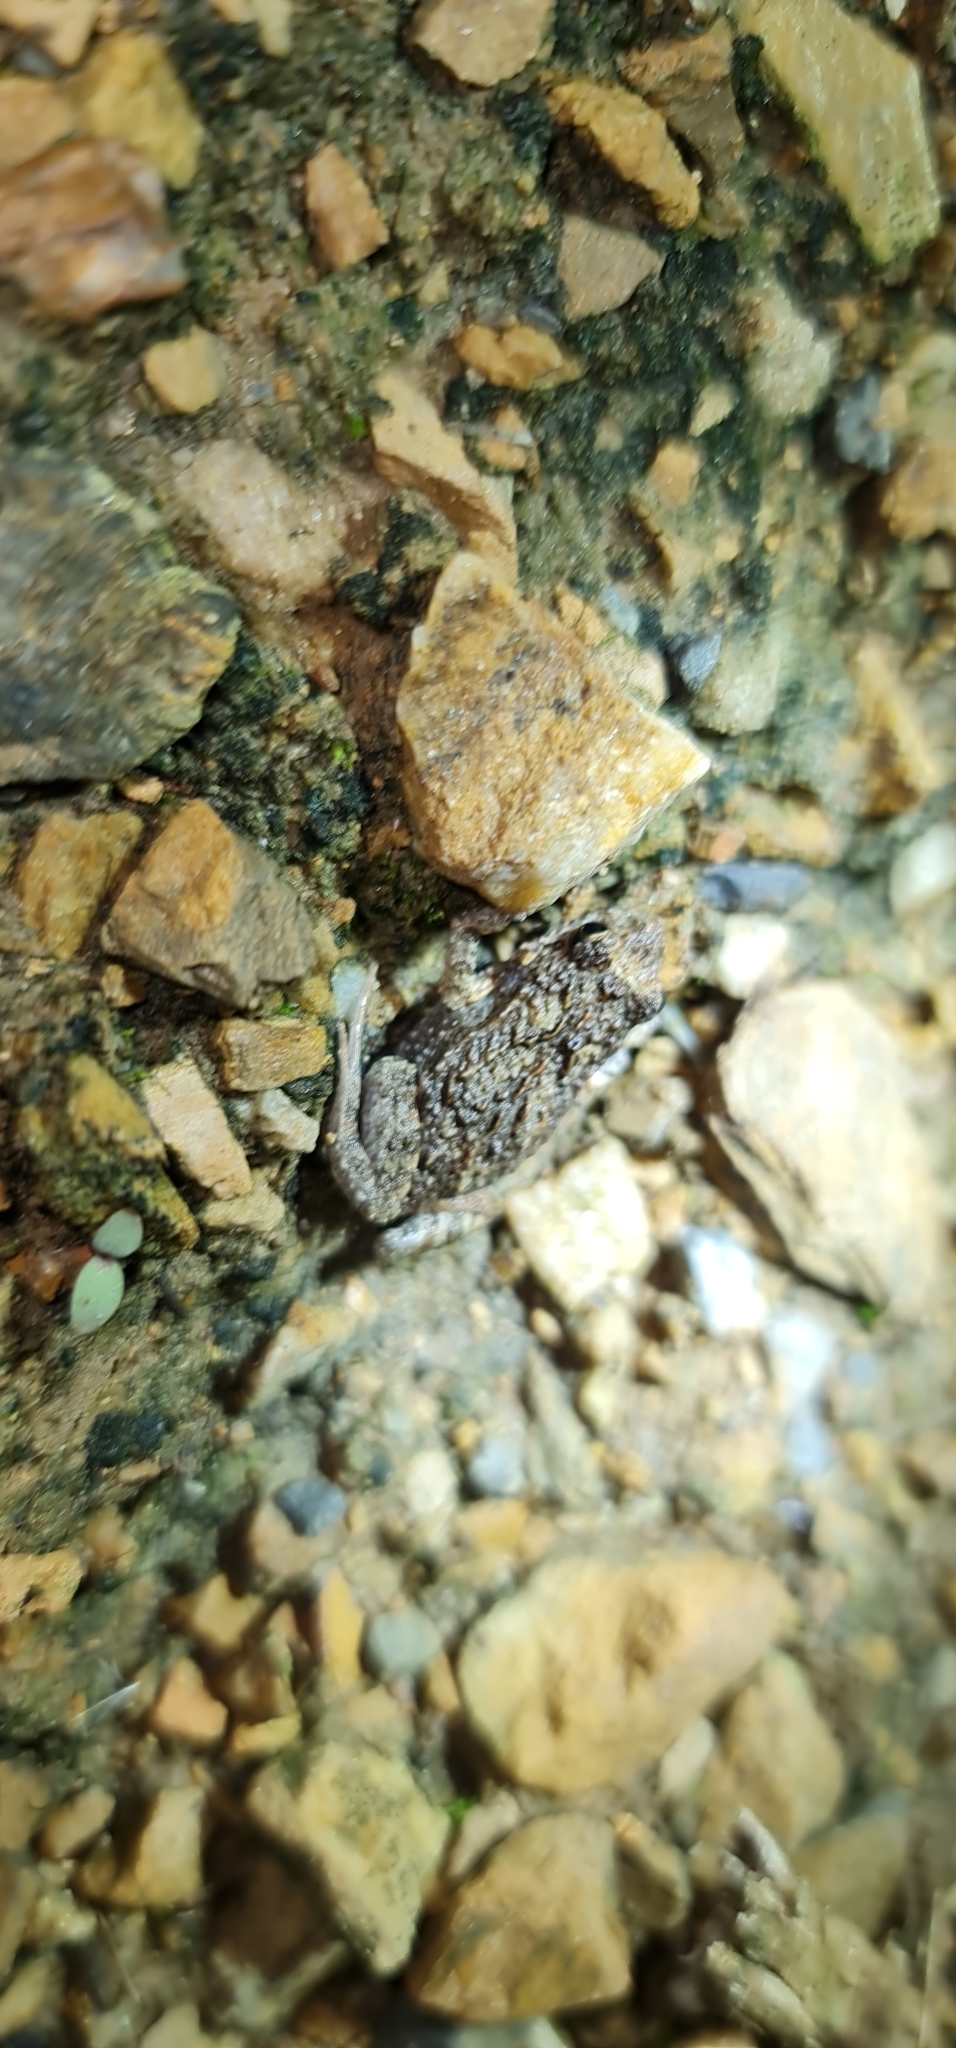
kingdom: Animalia
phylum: Chordata
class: Amphibia
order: Anura
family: Myobatrachidae
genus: Crinia
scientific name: Crinia signifera
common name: Brown froglet
